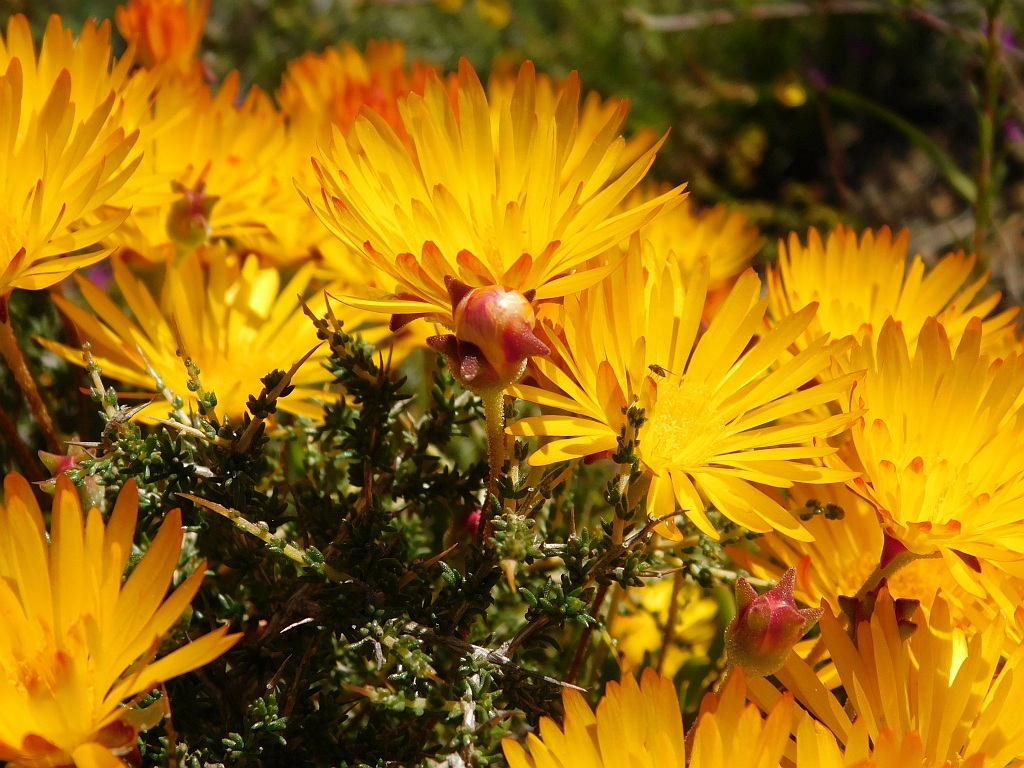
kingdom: Plantae
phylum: Tracheophyta
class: Magnoliopsida
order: Caryophyllales
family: Aizoaceae
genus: Drosanthemum
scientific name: Drosanthemum flavum
